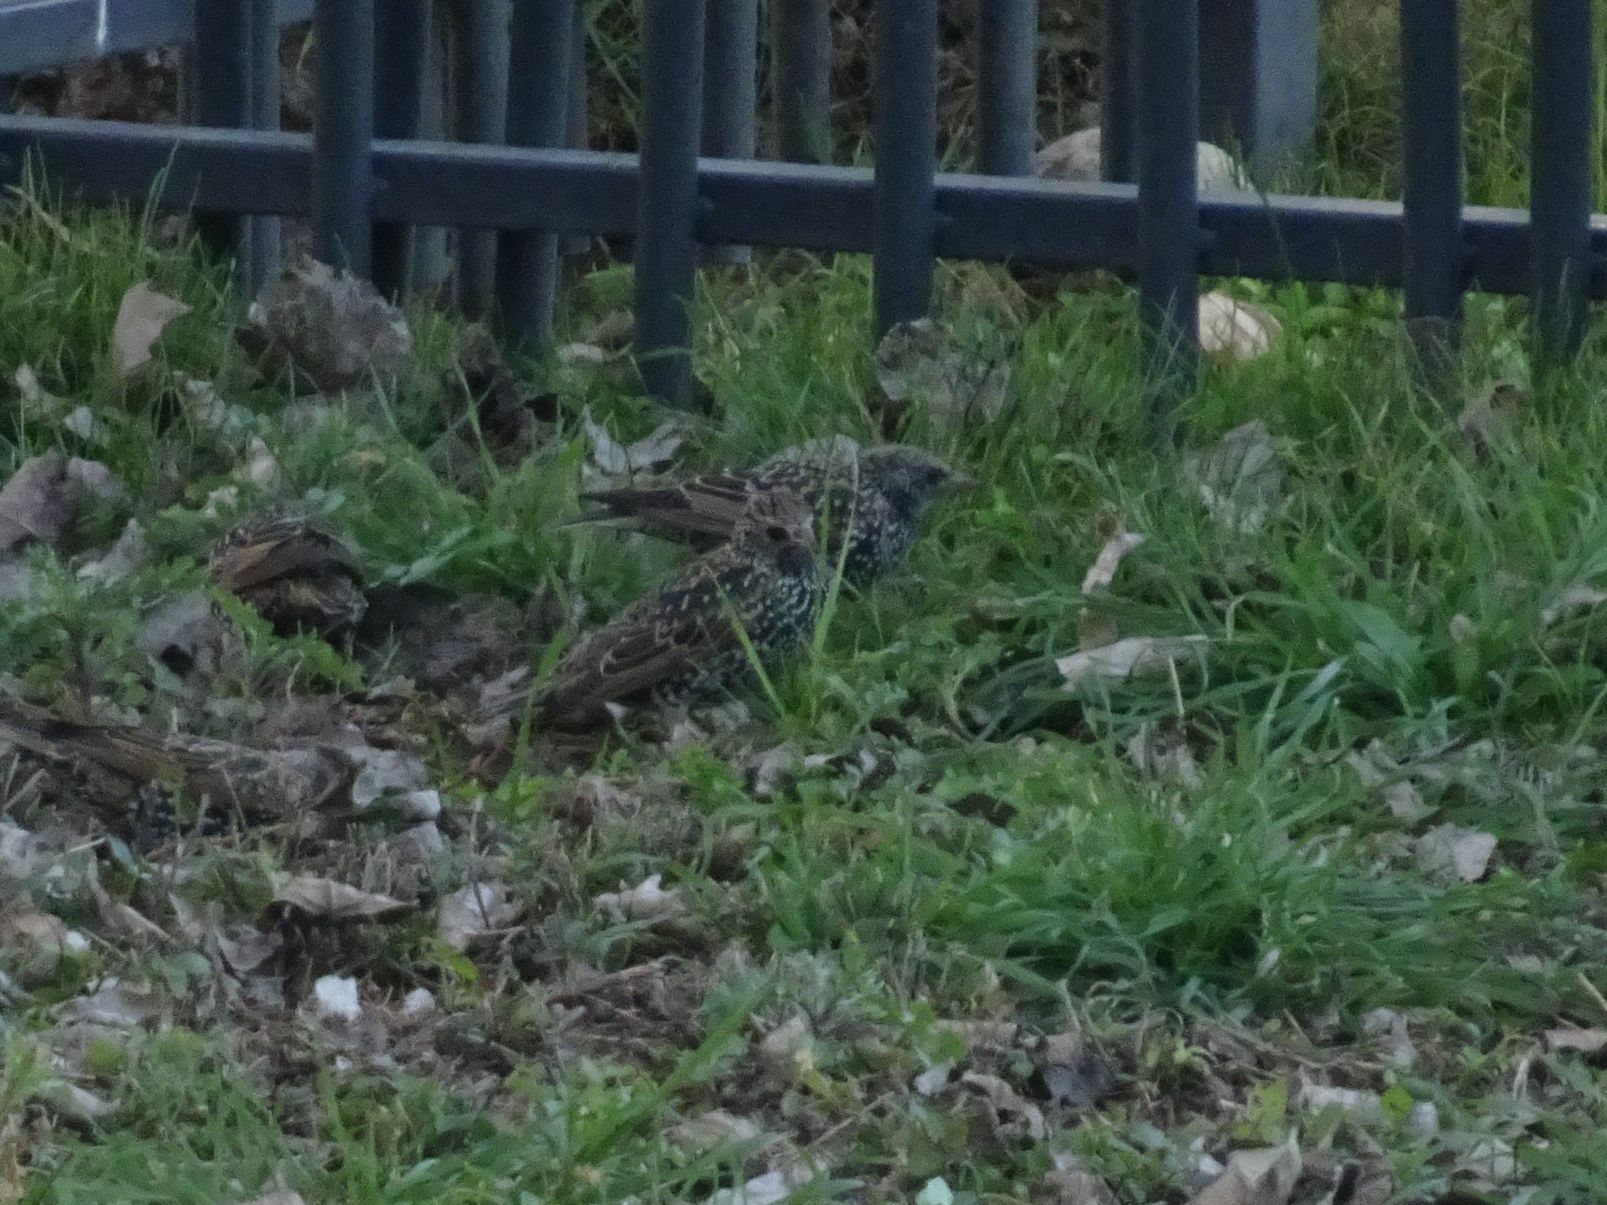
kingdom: Animalia
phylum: Chordata
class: Aves
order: Passeriformes
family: Sturnidae
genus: Sturnus
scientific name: Sturnus vulgaris
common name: Common starling
